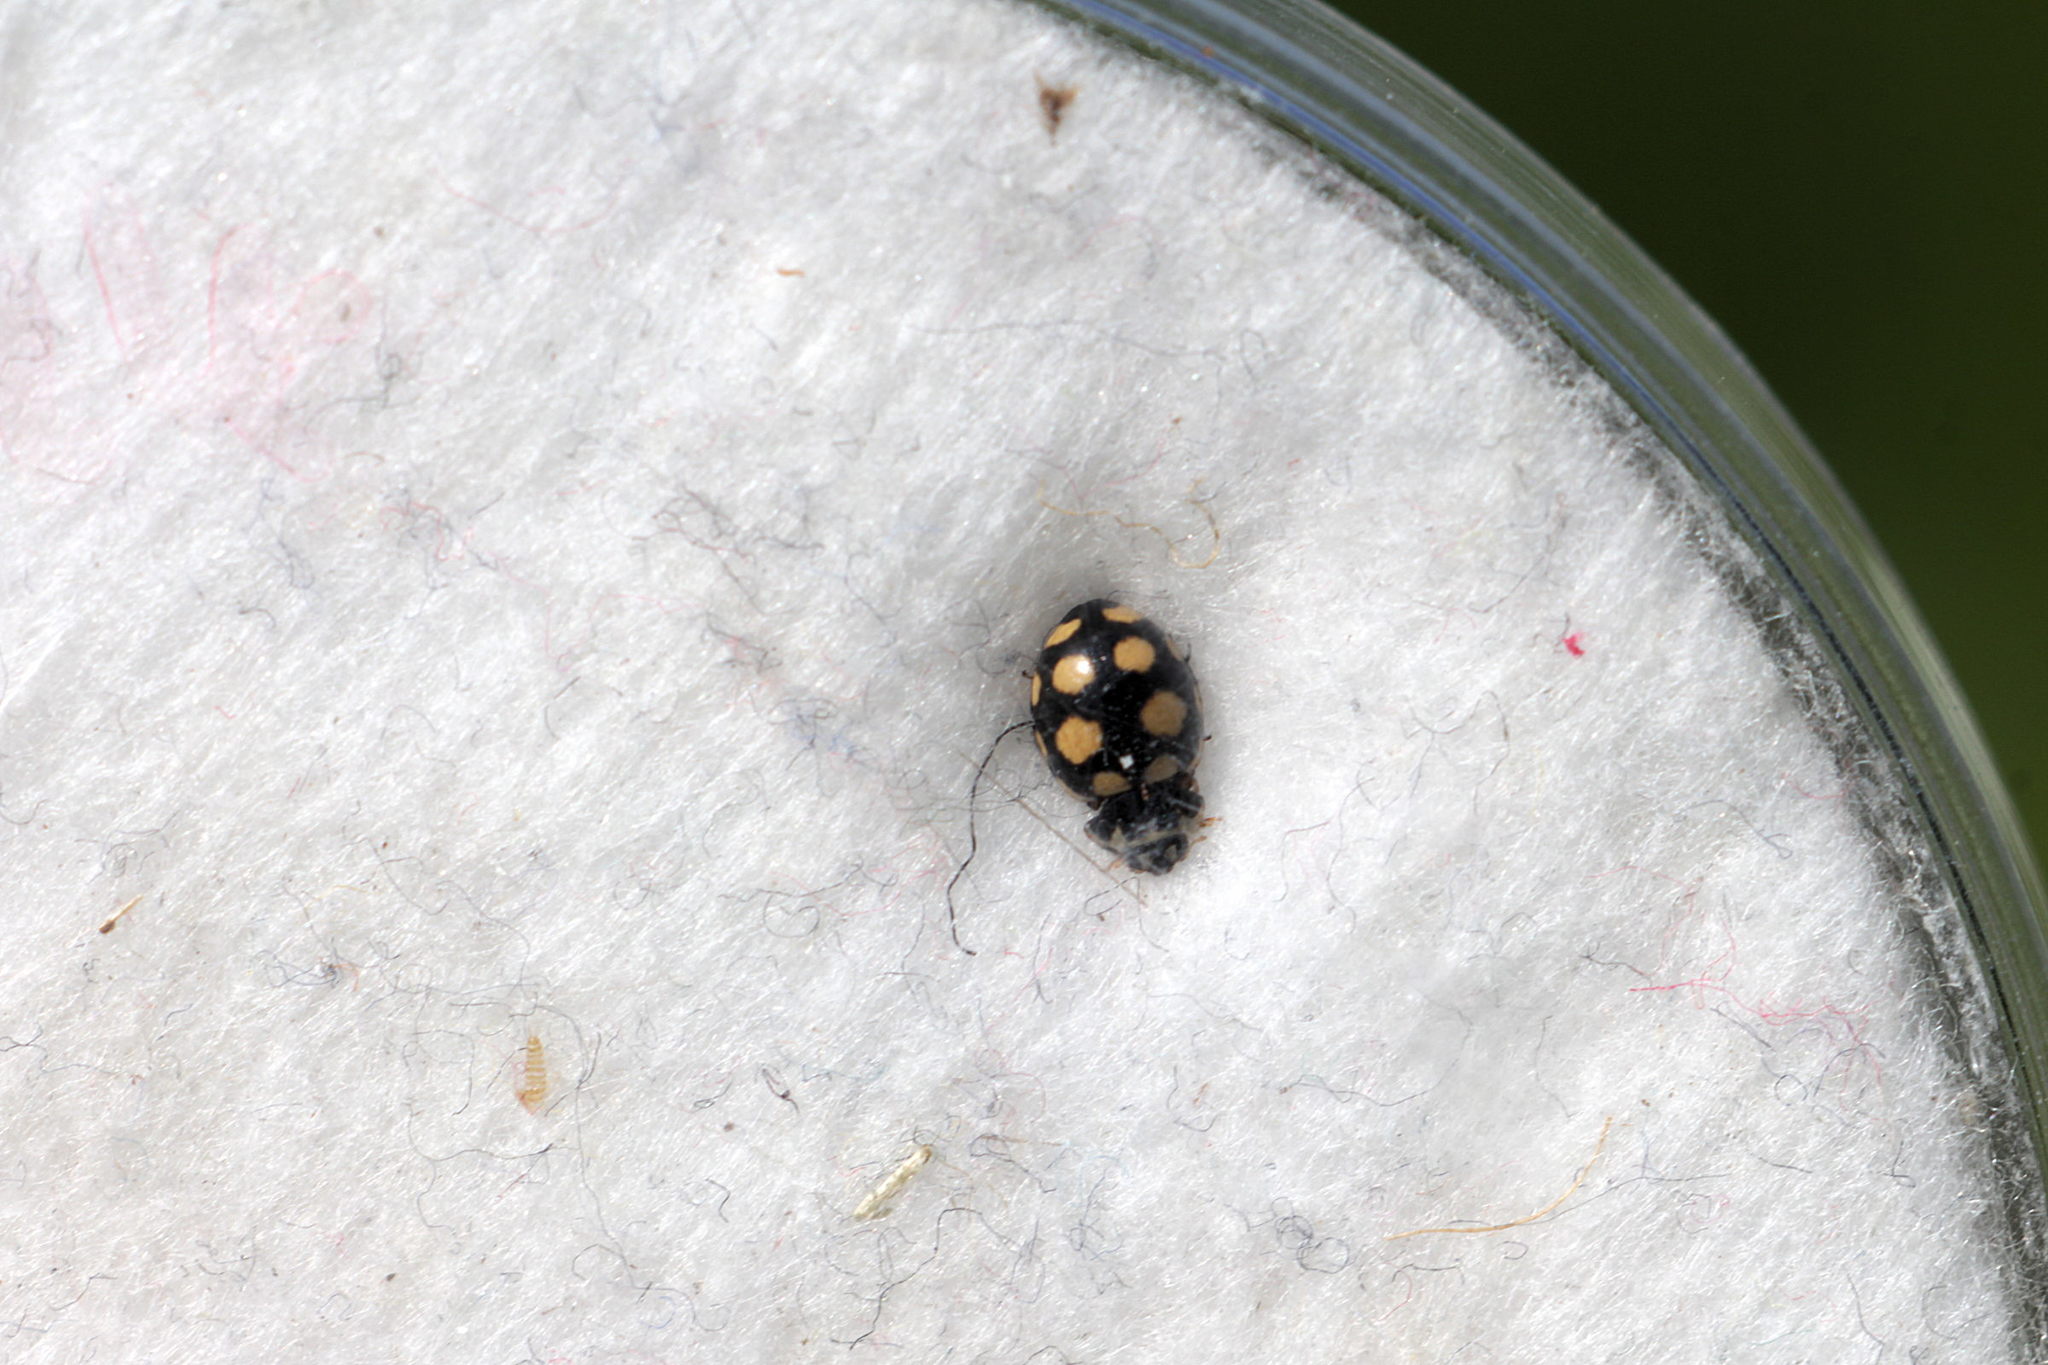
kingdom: Animalia
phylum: Arthropoda
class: Insecta
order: Coleoptera
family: Coccinellidae
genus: Coccinula
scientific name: Coccinula quatuordecimpustulata
